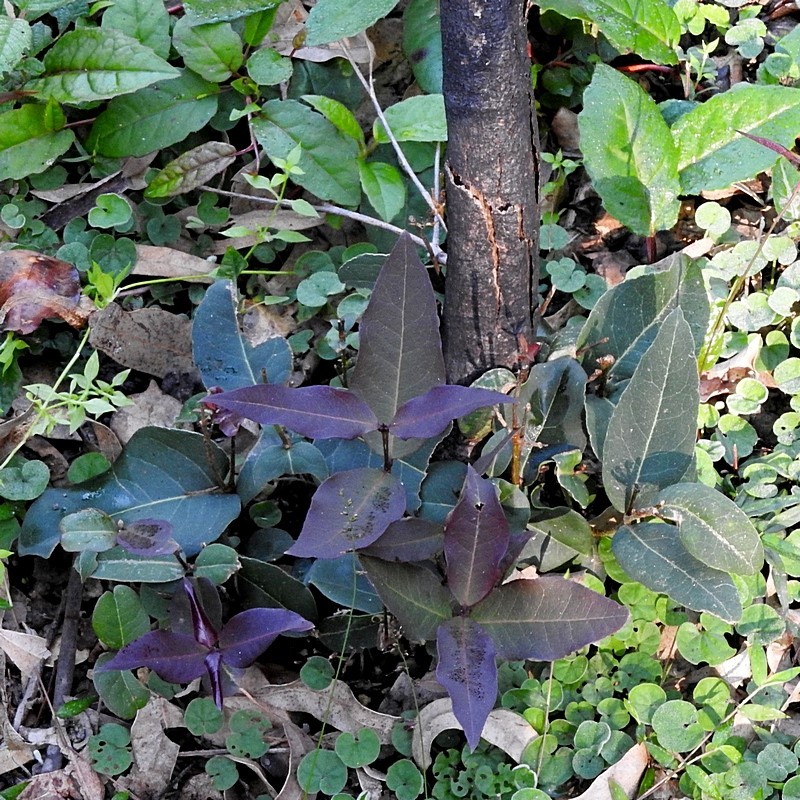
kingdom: Plantae
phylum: Tracheophyta
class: Magnoliopsida
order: Lamiales
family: Oleaceae
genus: Notelaea
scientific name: Notelaea venosa
